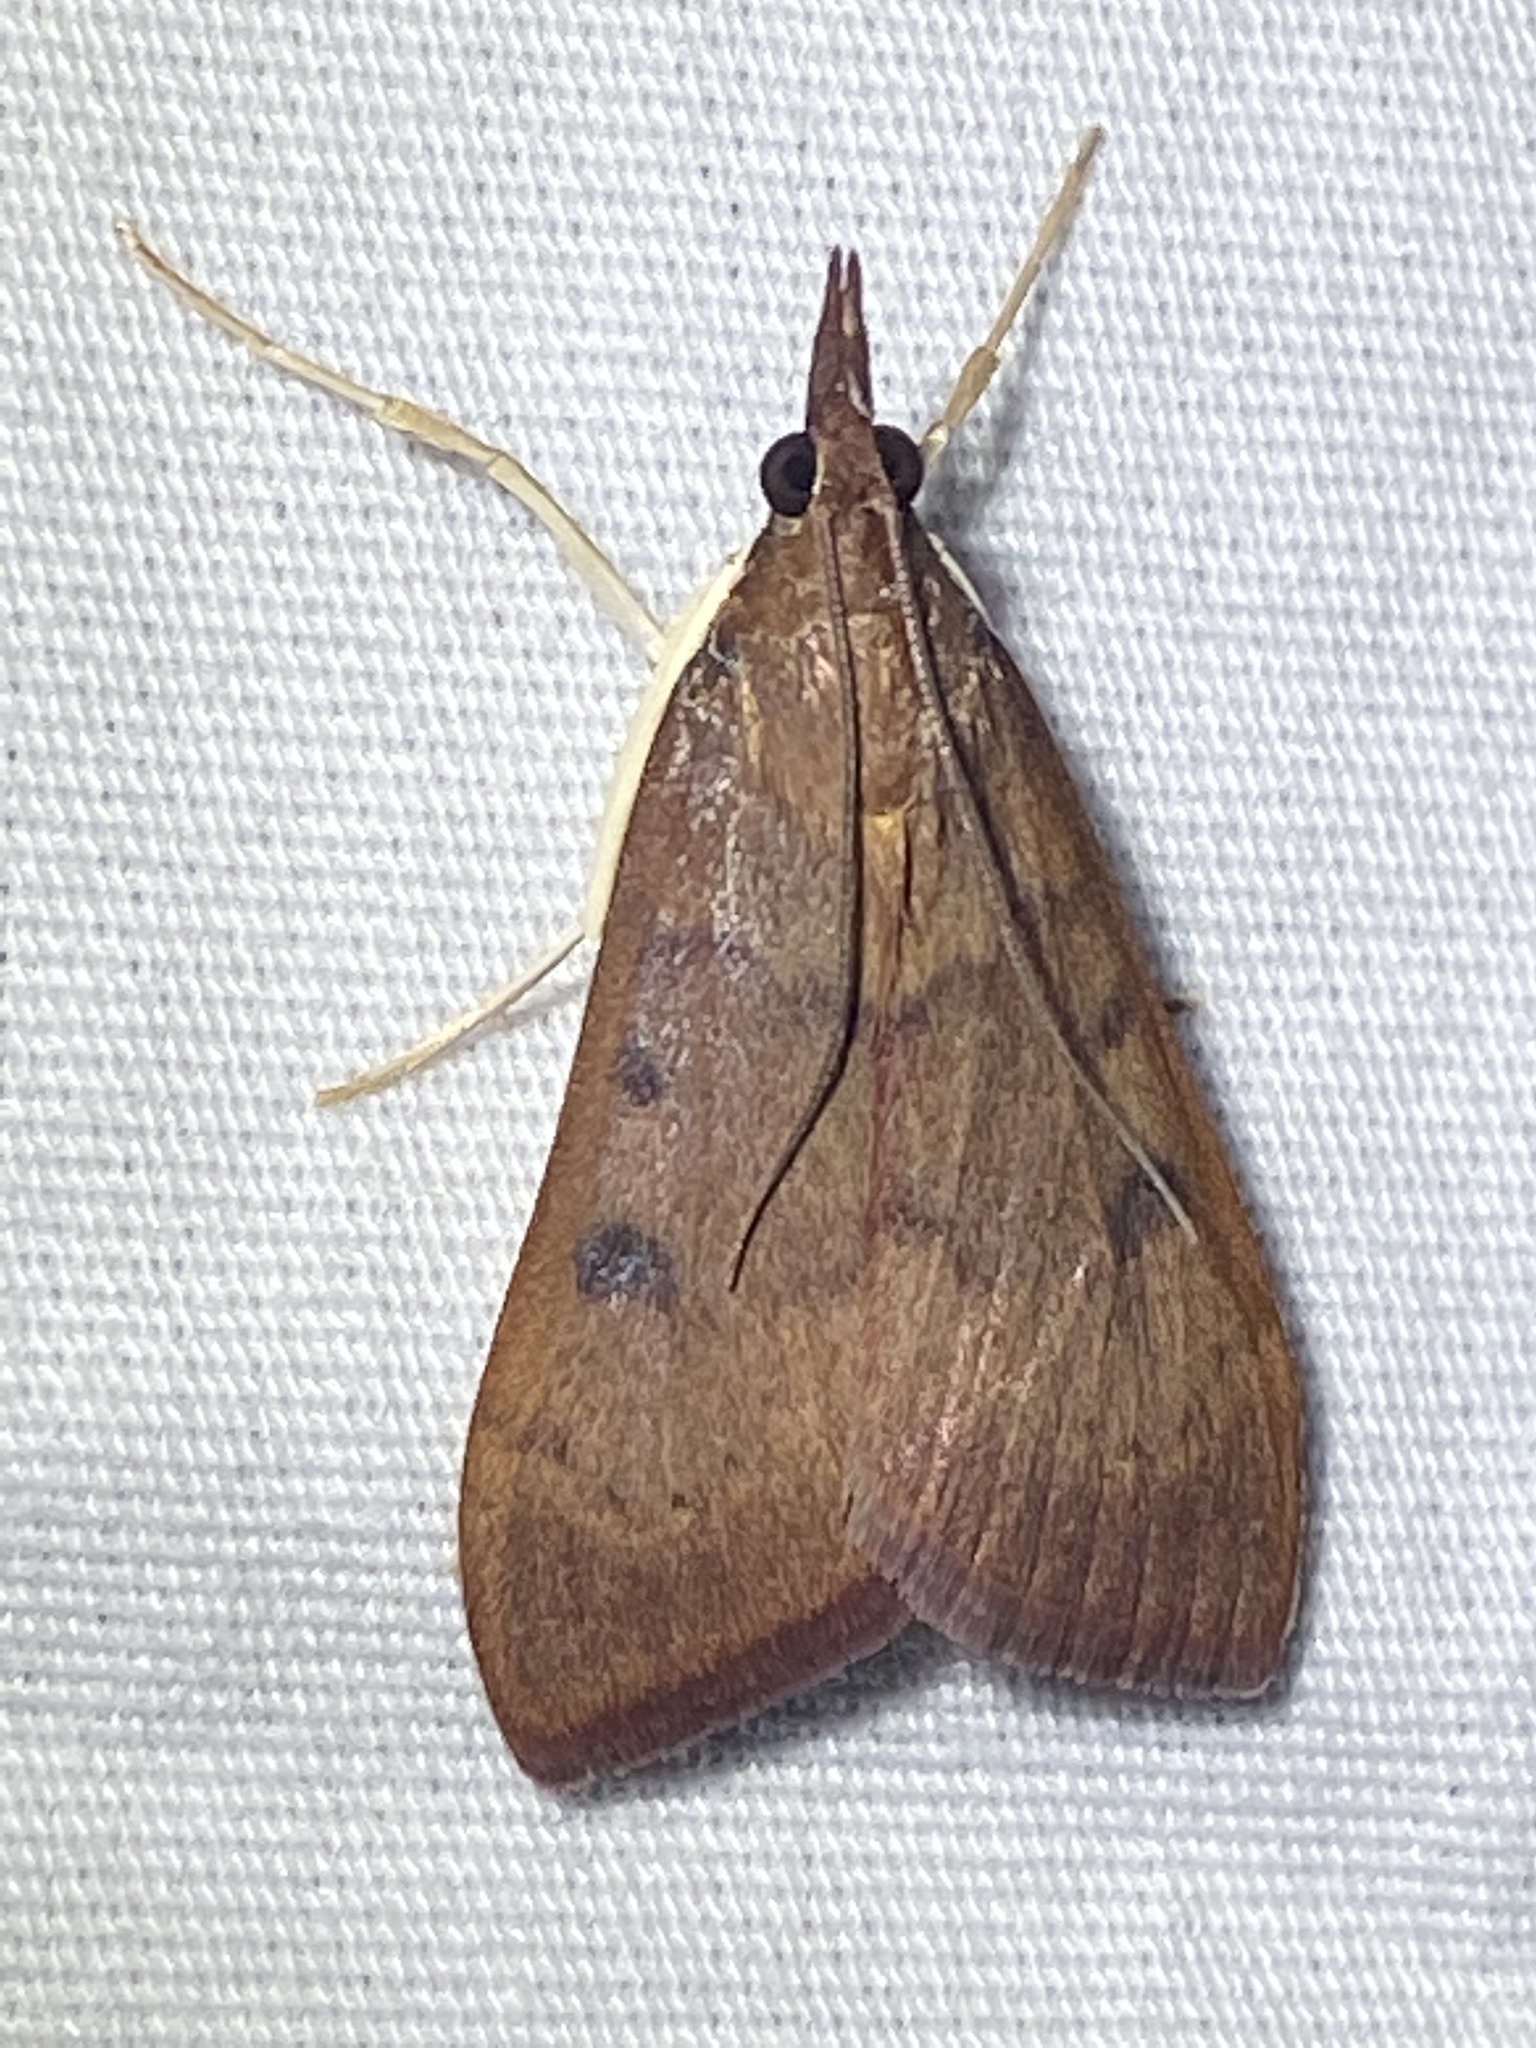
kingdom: Animalia
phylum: Arthropoda
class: Insecta
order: Lepidoptera
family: Crambidae
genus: Uresiphita
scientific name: Uresiphita reversalis
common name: Genista broom moth
